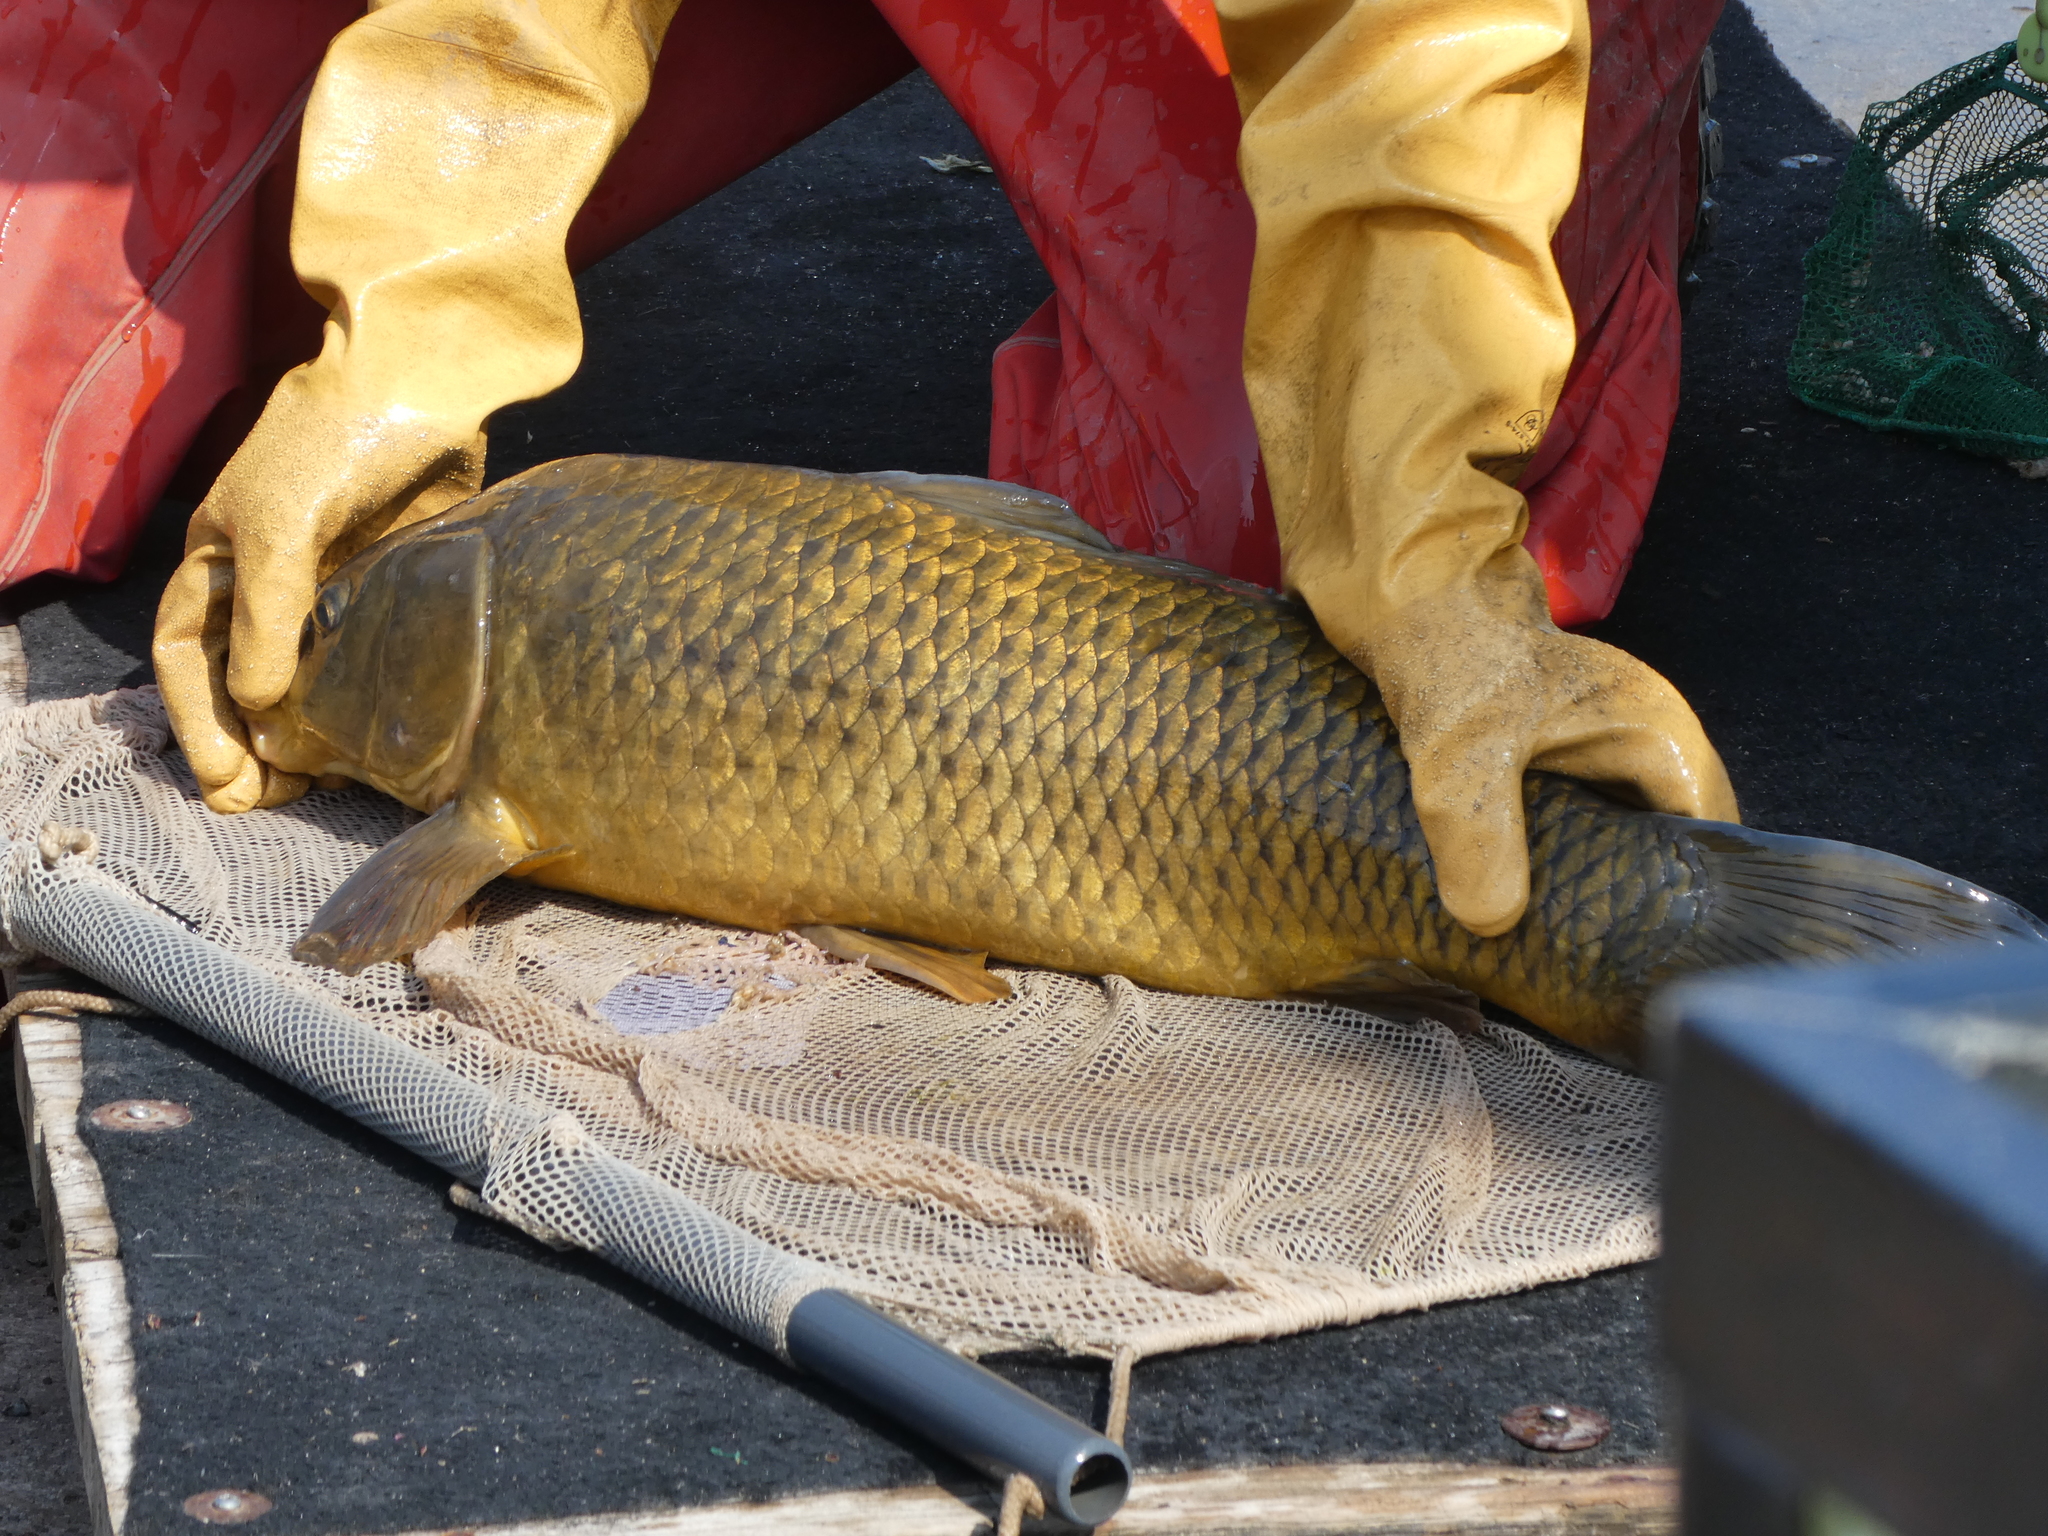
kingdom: Animalia
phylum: Chordata
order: Cypriniformes
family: Cyprinidae
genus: Cyprinus
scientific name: Cyprinus carpio
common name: Common carp
